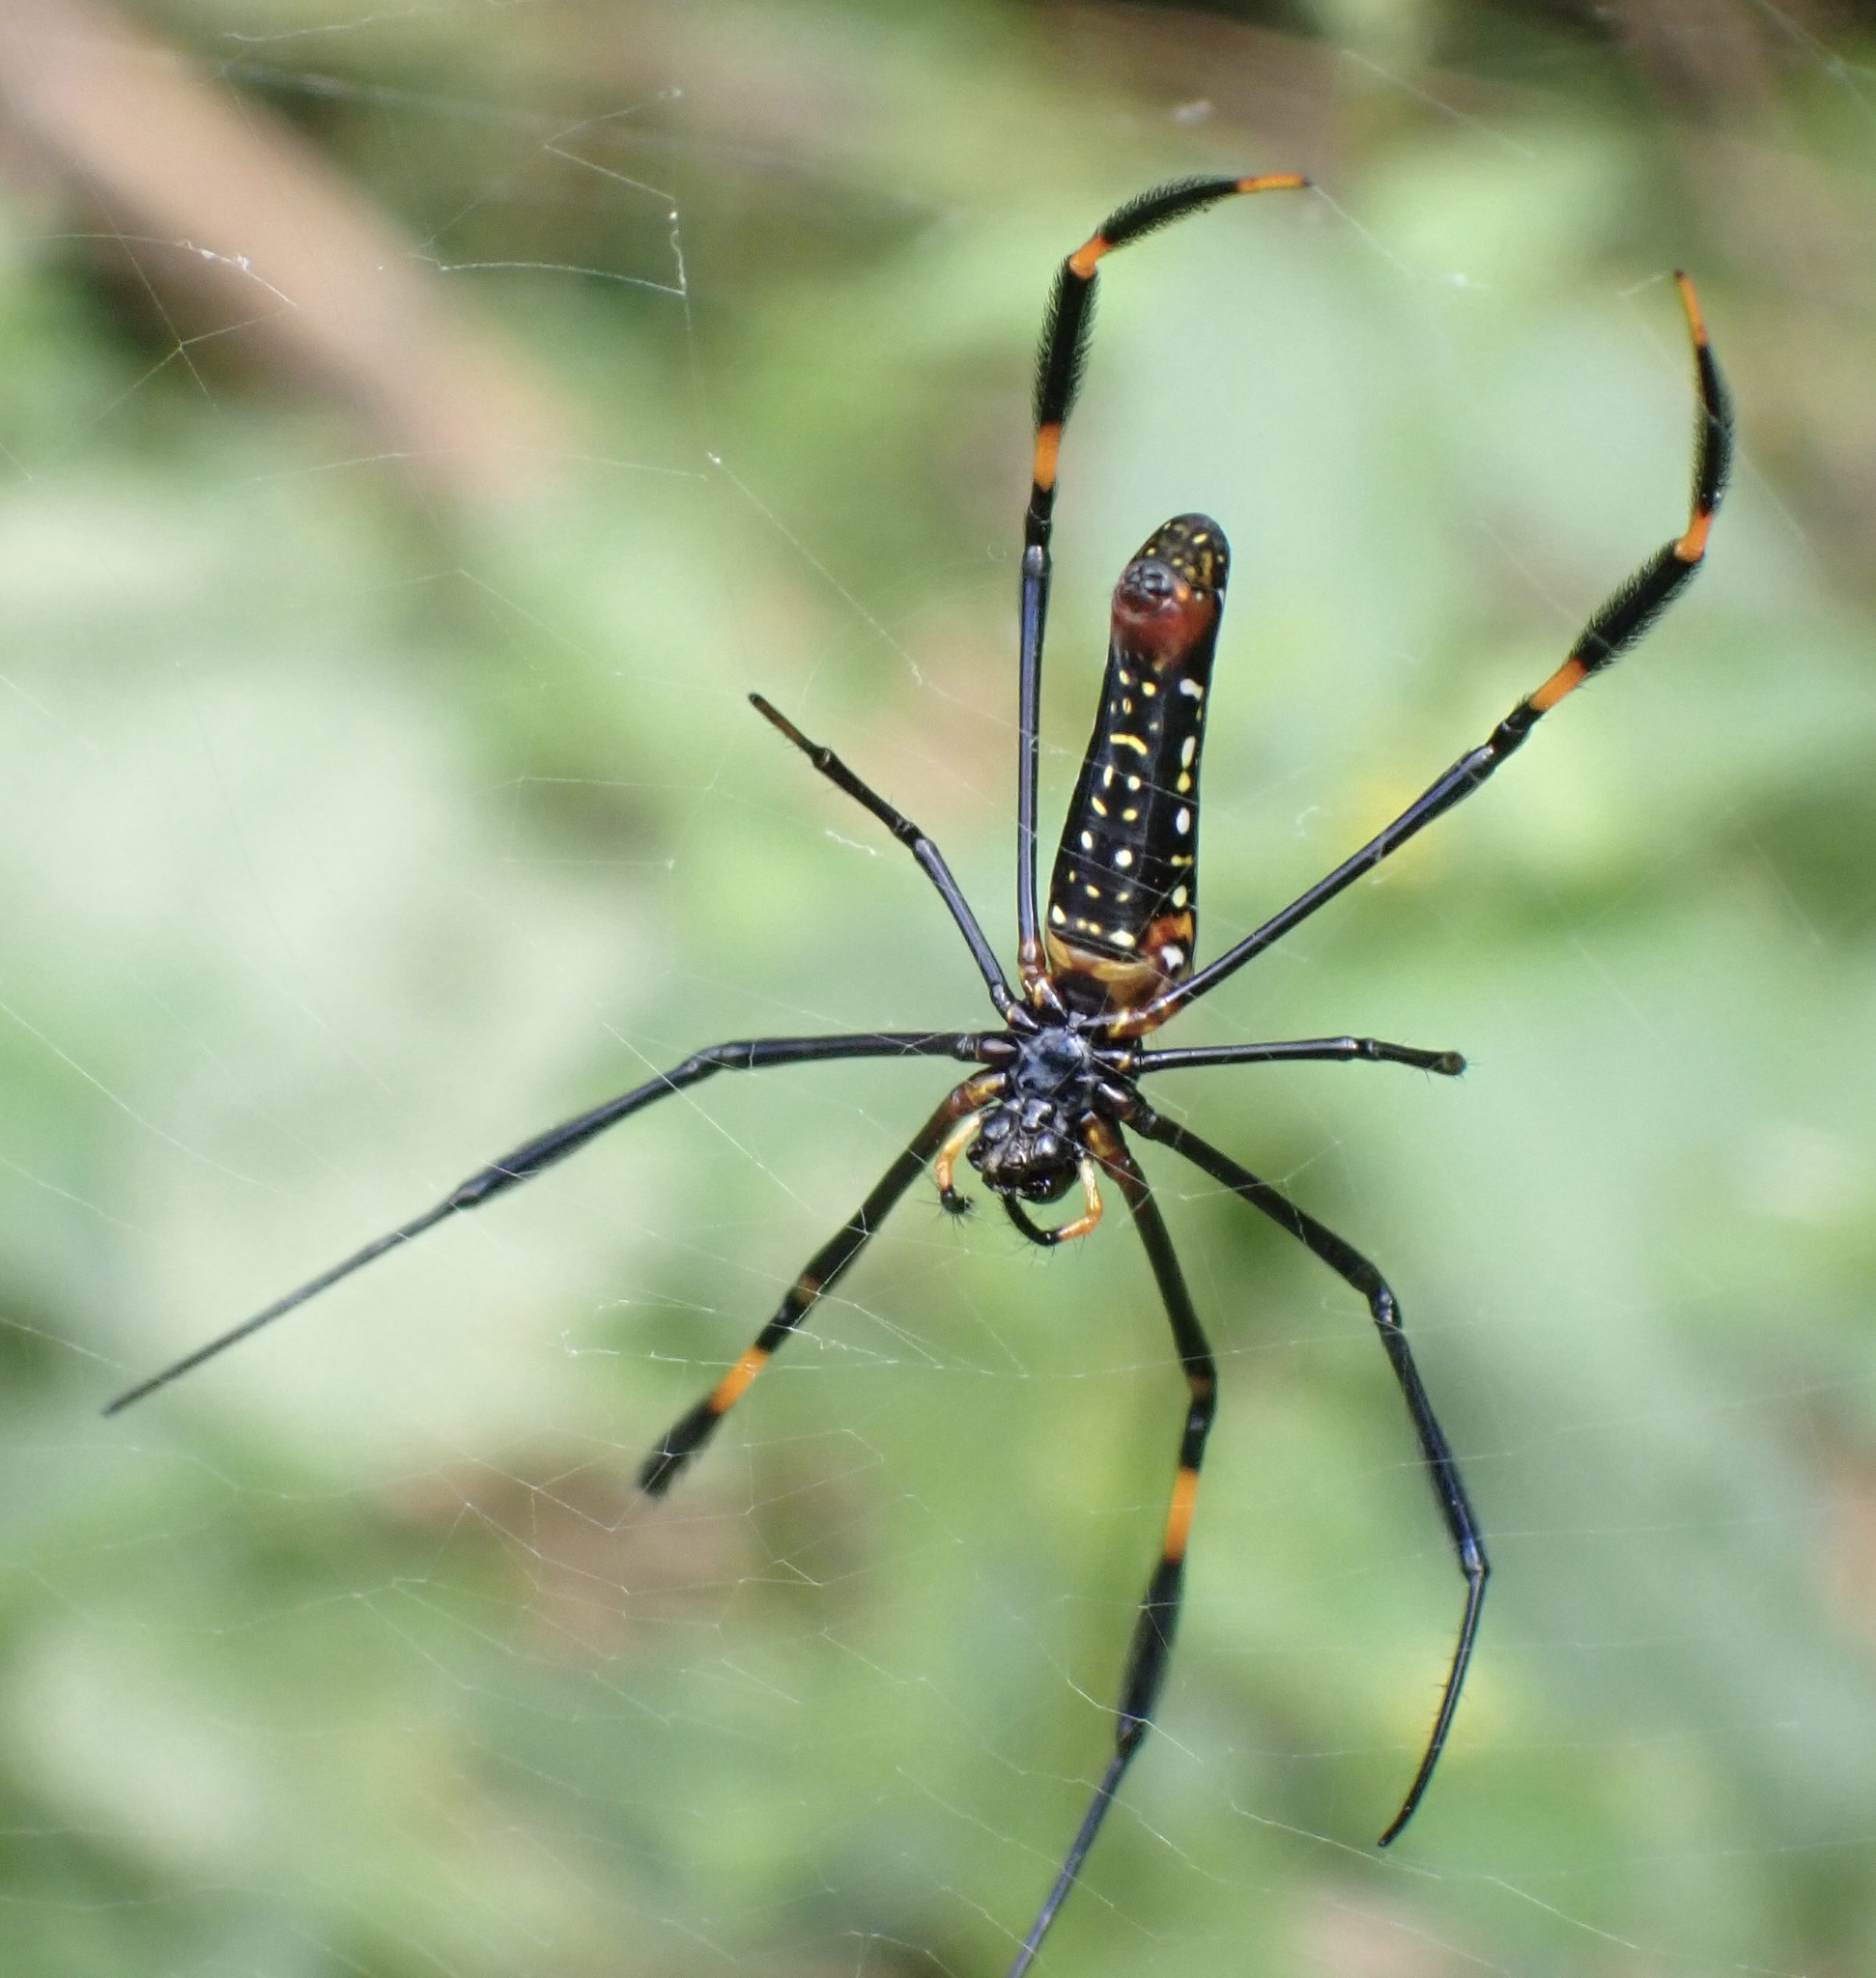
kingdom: Animalia
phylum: Arthropoda
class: Arachnida
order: Araneae
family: Araneidae
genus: Nephila
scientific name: Nephila pilipes
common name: Giant golden orb weaver
